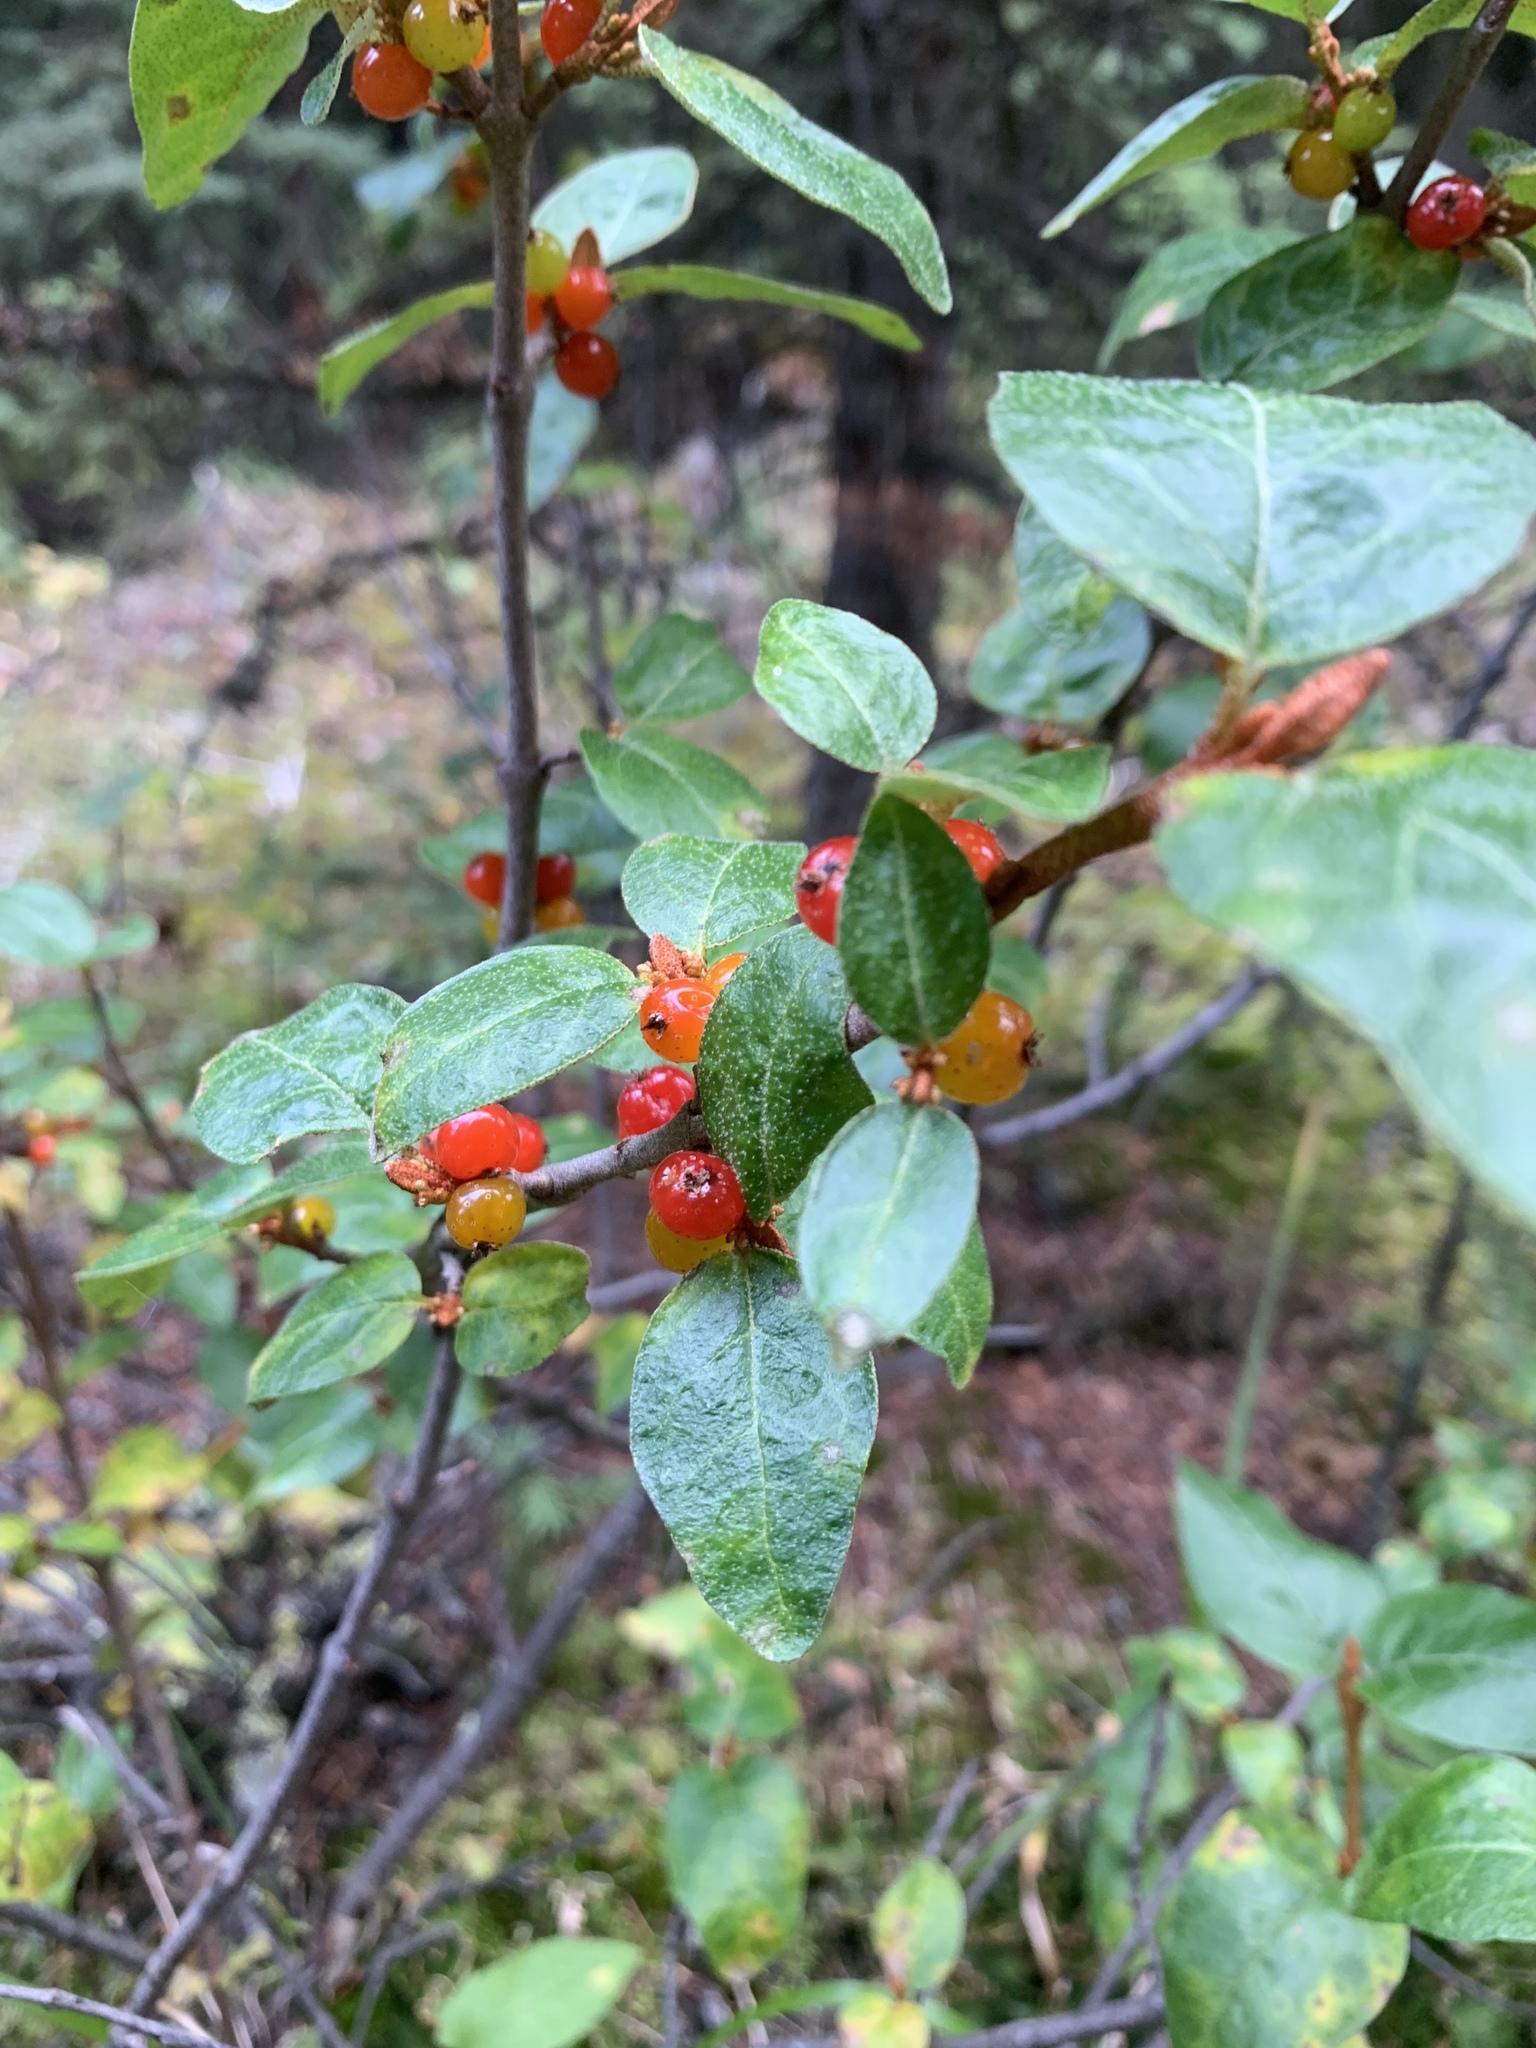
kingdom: Plantae
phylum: Tracheophyta
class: Magnoliopsida
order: Rosales
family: Elaeagnaceae
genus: Shepherdia
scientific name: Shepherdia canadensis
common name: Soapberry
